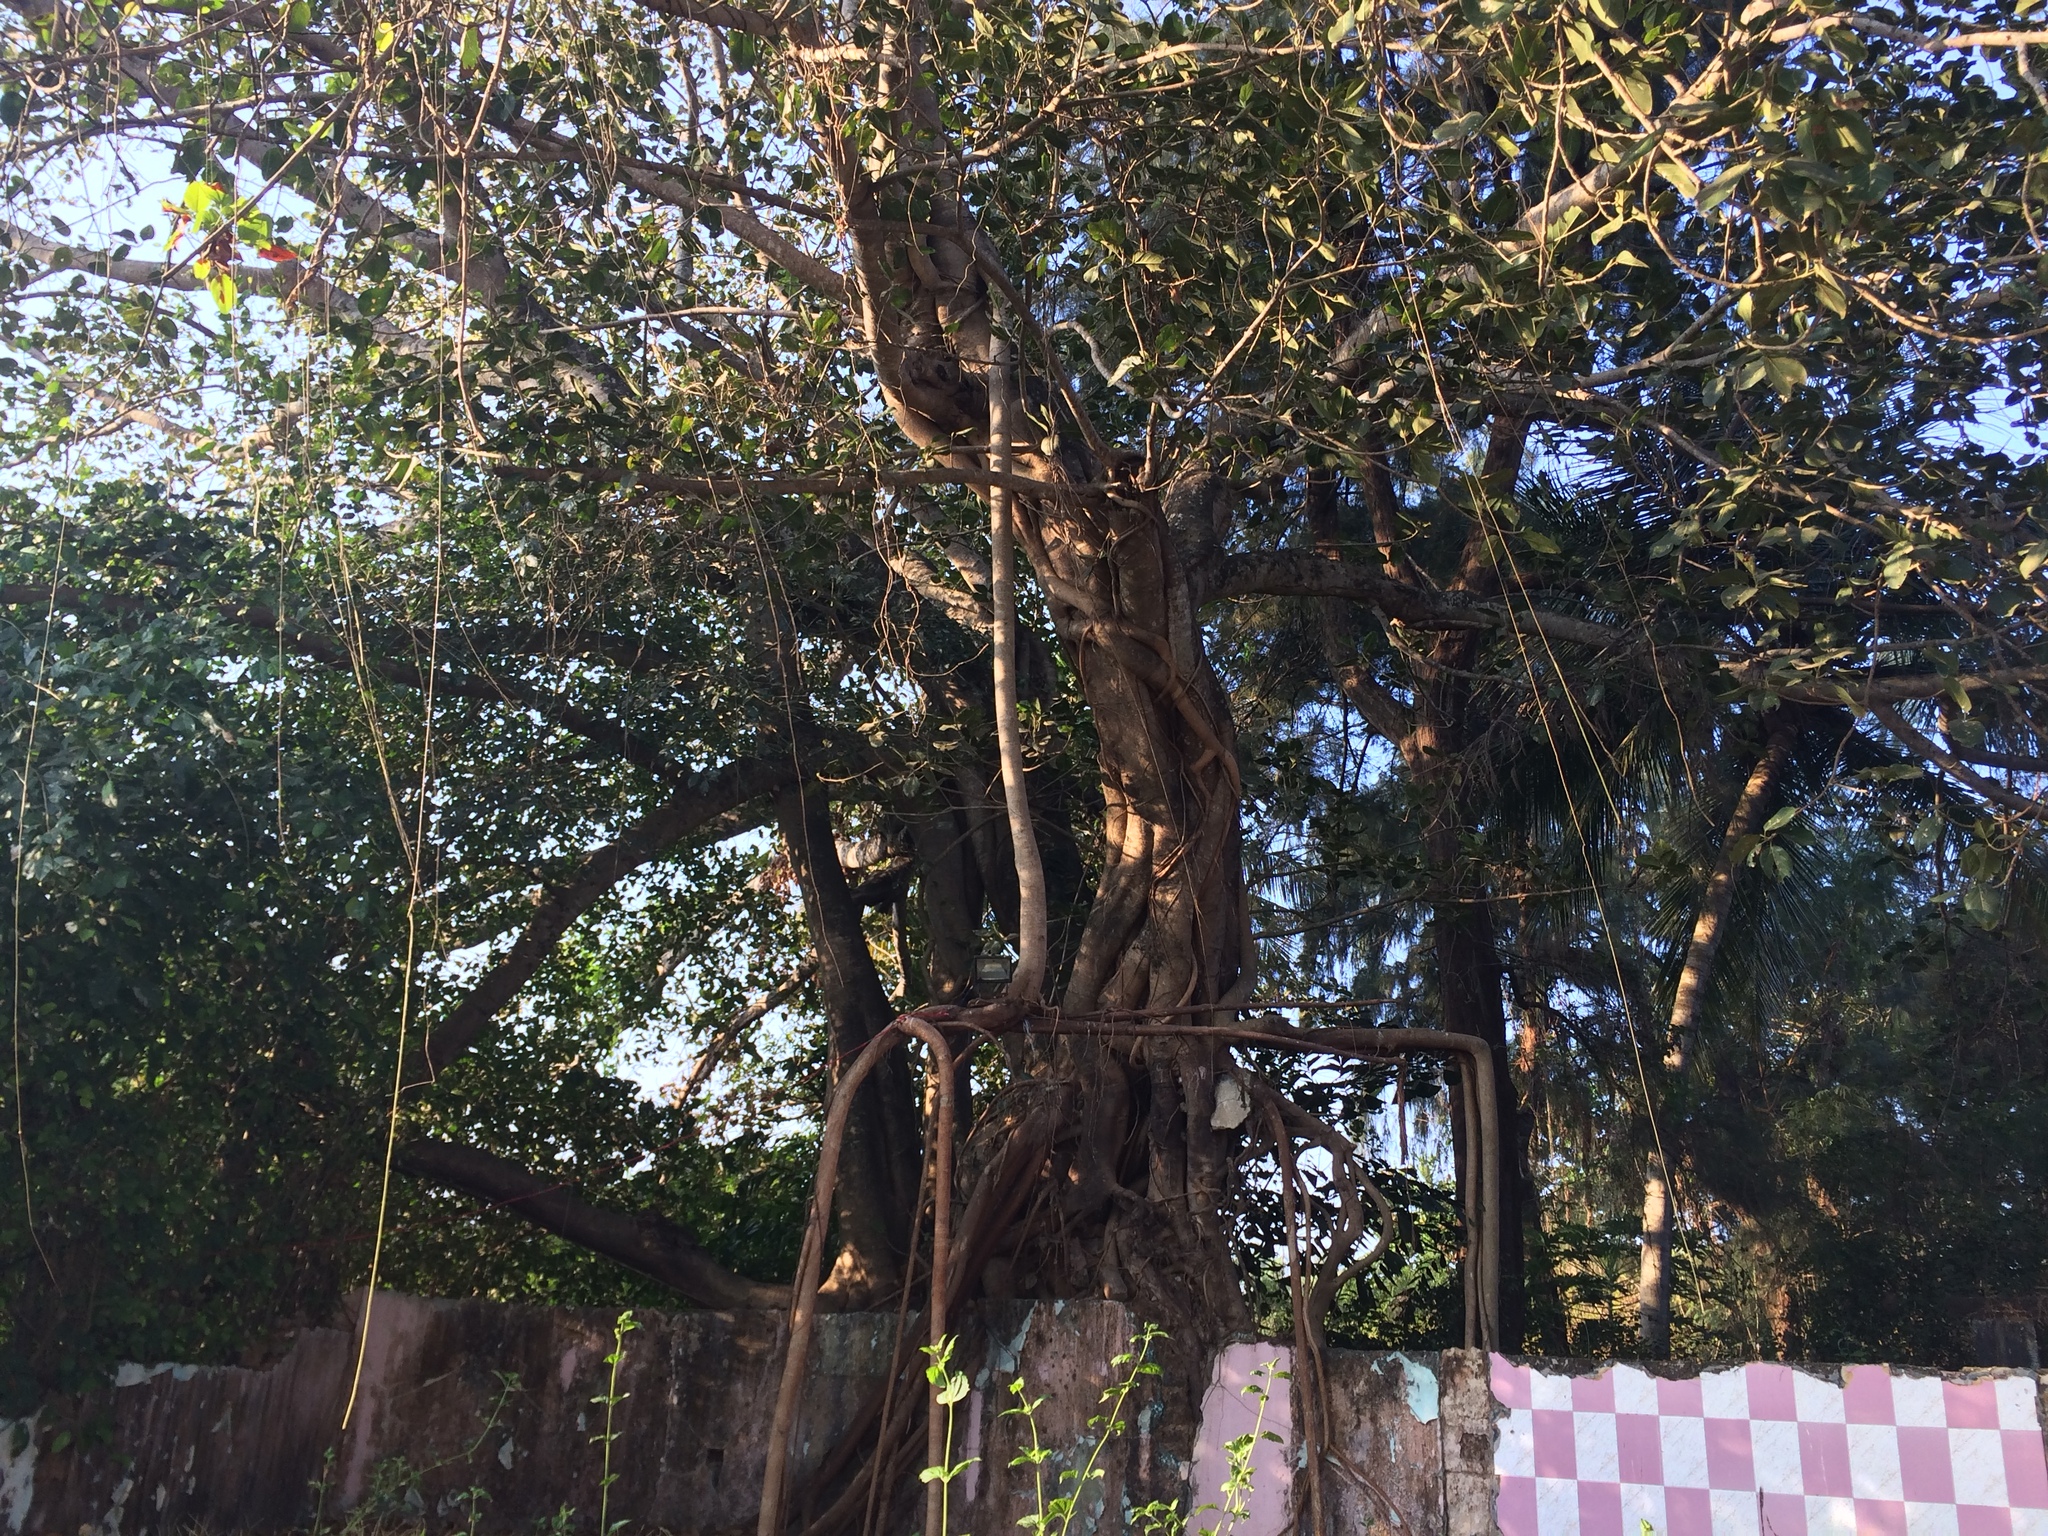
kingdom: Plantae
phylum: Tracheophyta
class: Magnoliopsida
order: Rosales
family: Moraceae
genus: Ficus
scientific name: Ficus benghalensis
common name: Indian banyan
